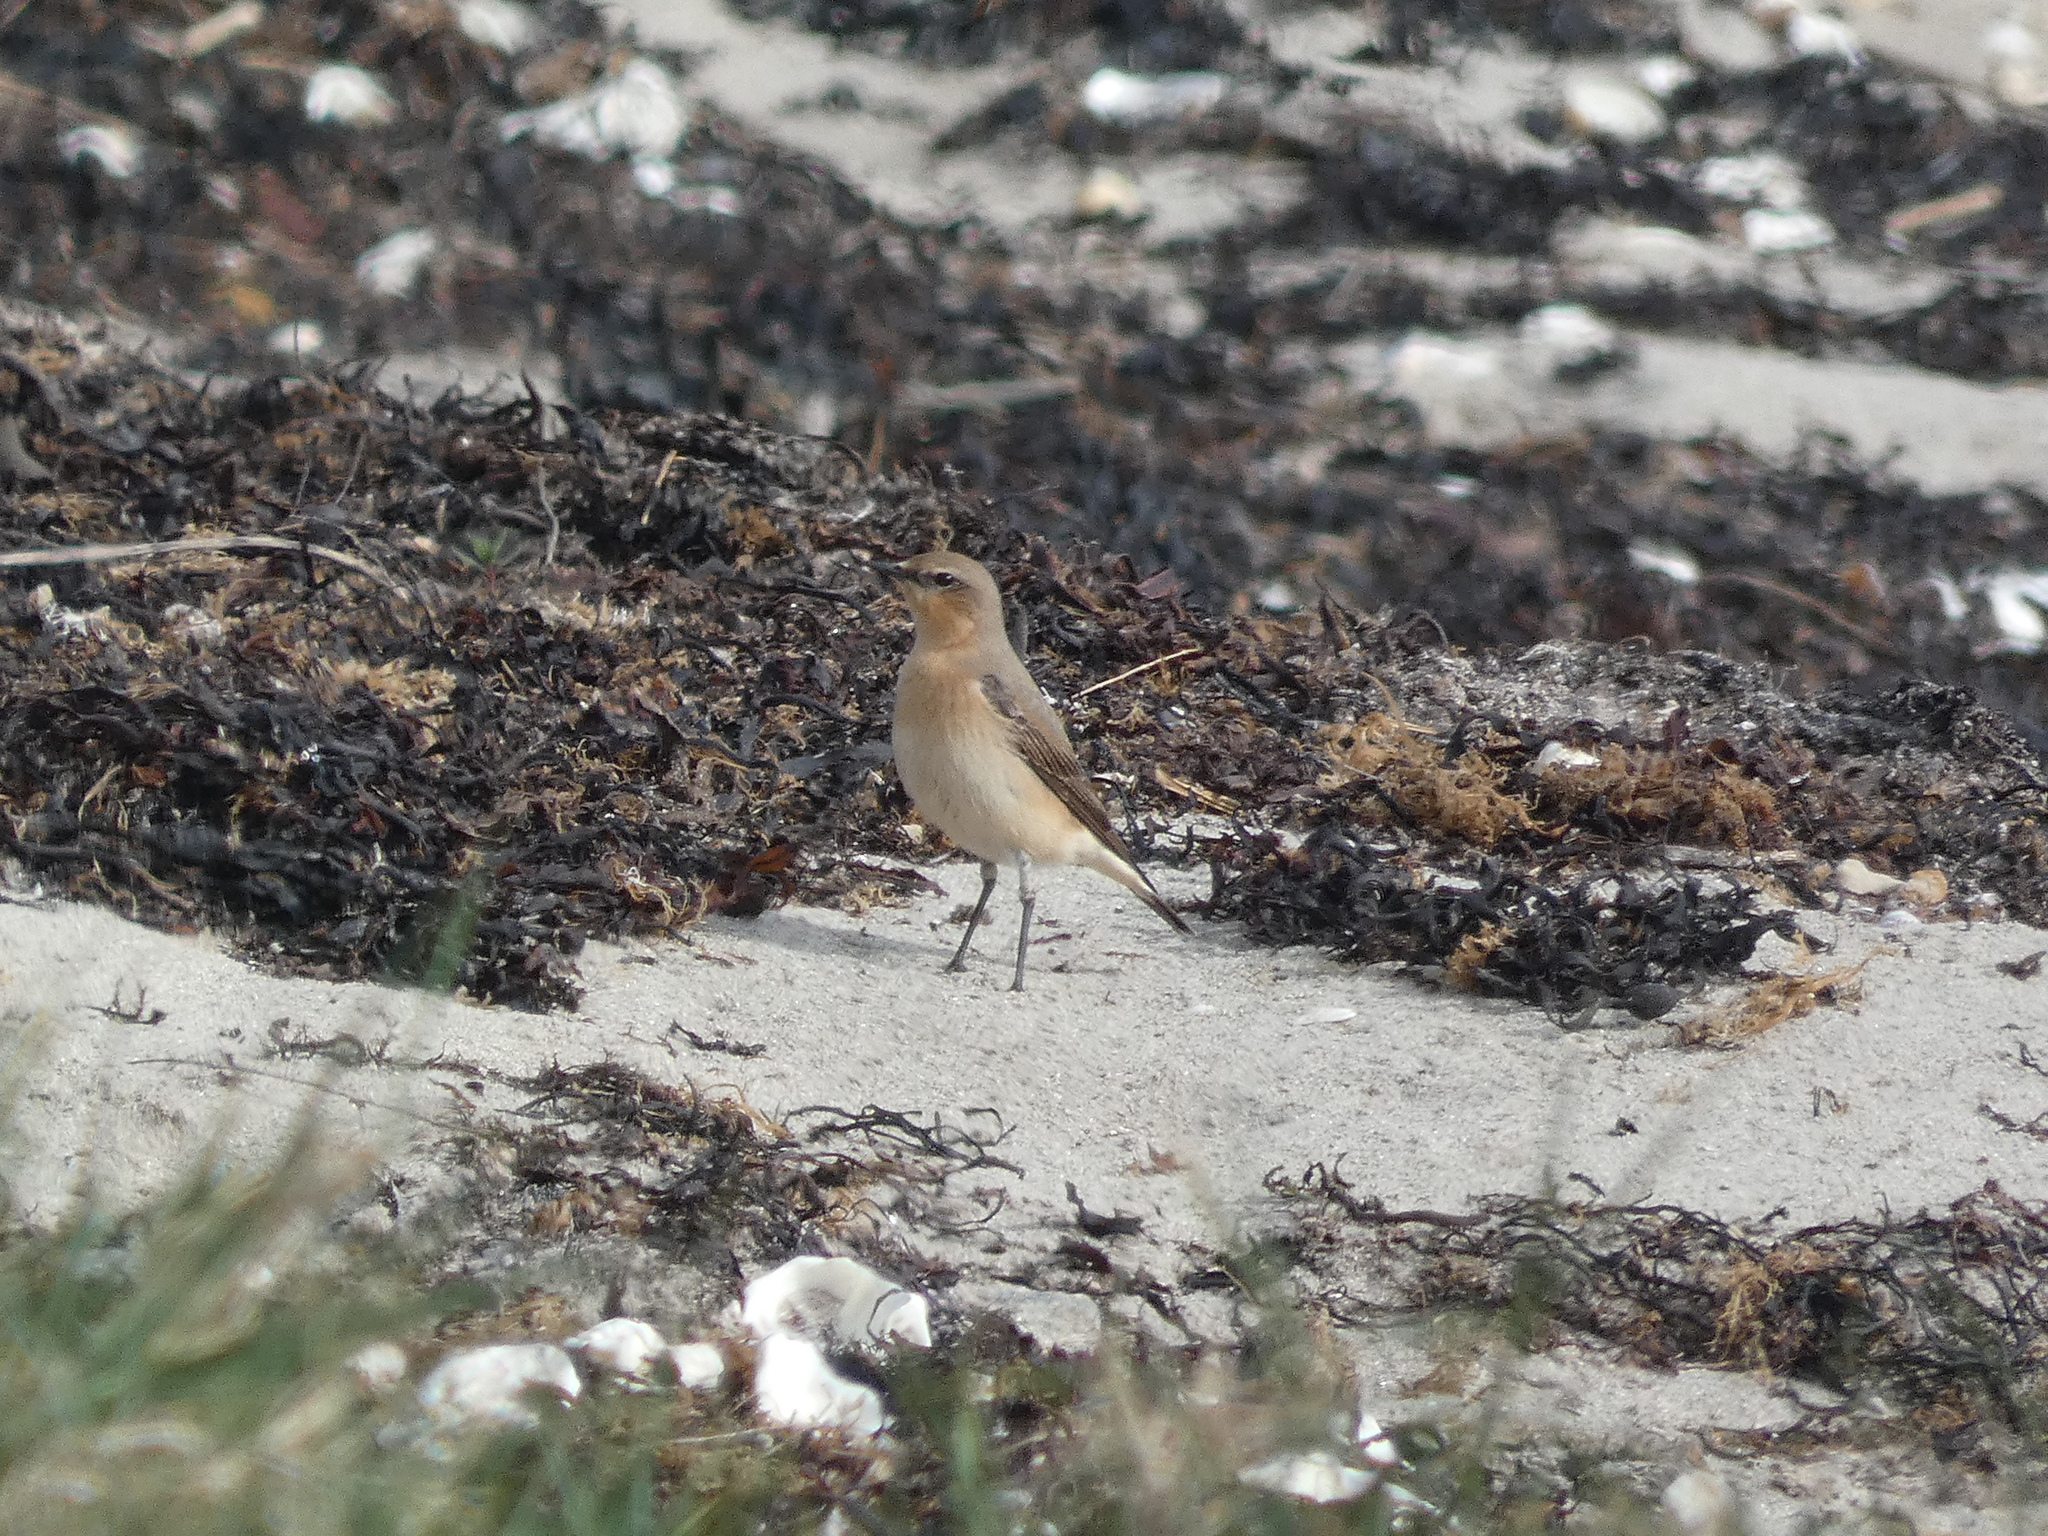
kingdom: Animalia
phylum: Chordata
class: Aves
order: Passeriformes
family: Muscicapidae
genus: Oenanthe
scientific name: Oenanthe oenanthe
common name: Northern wheatear
